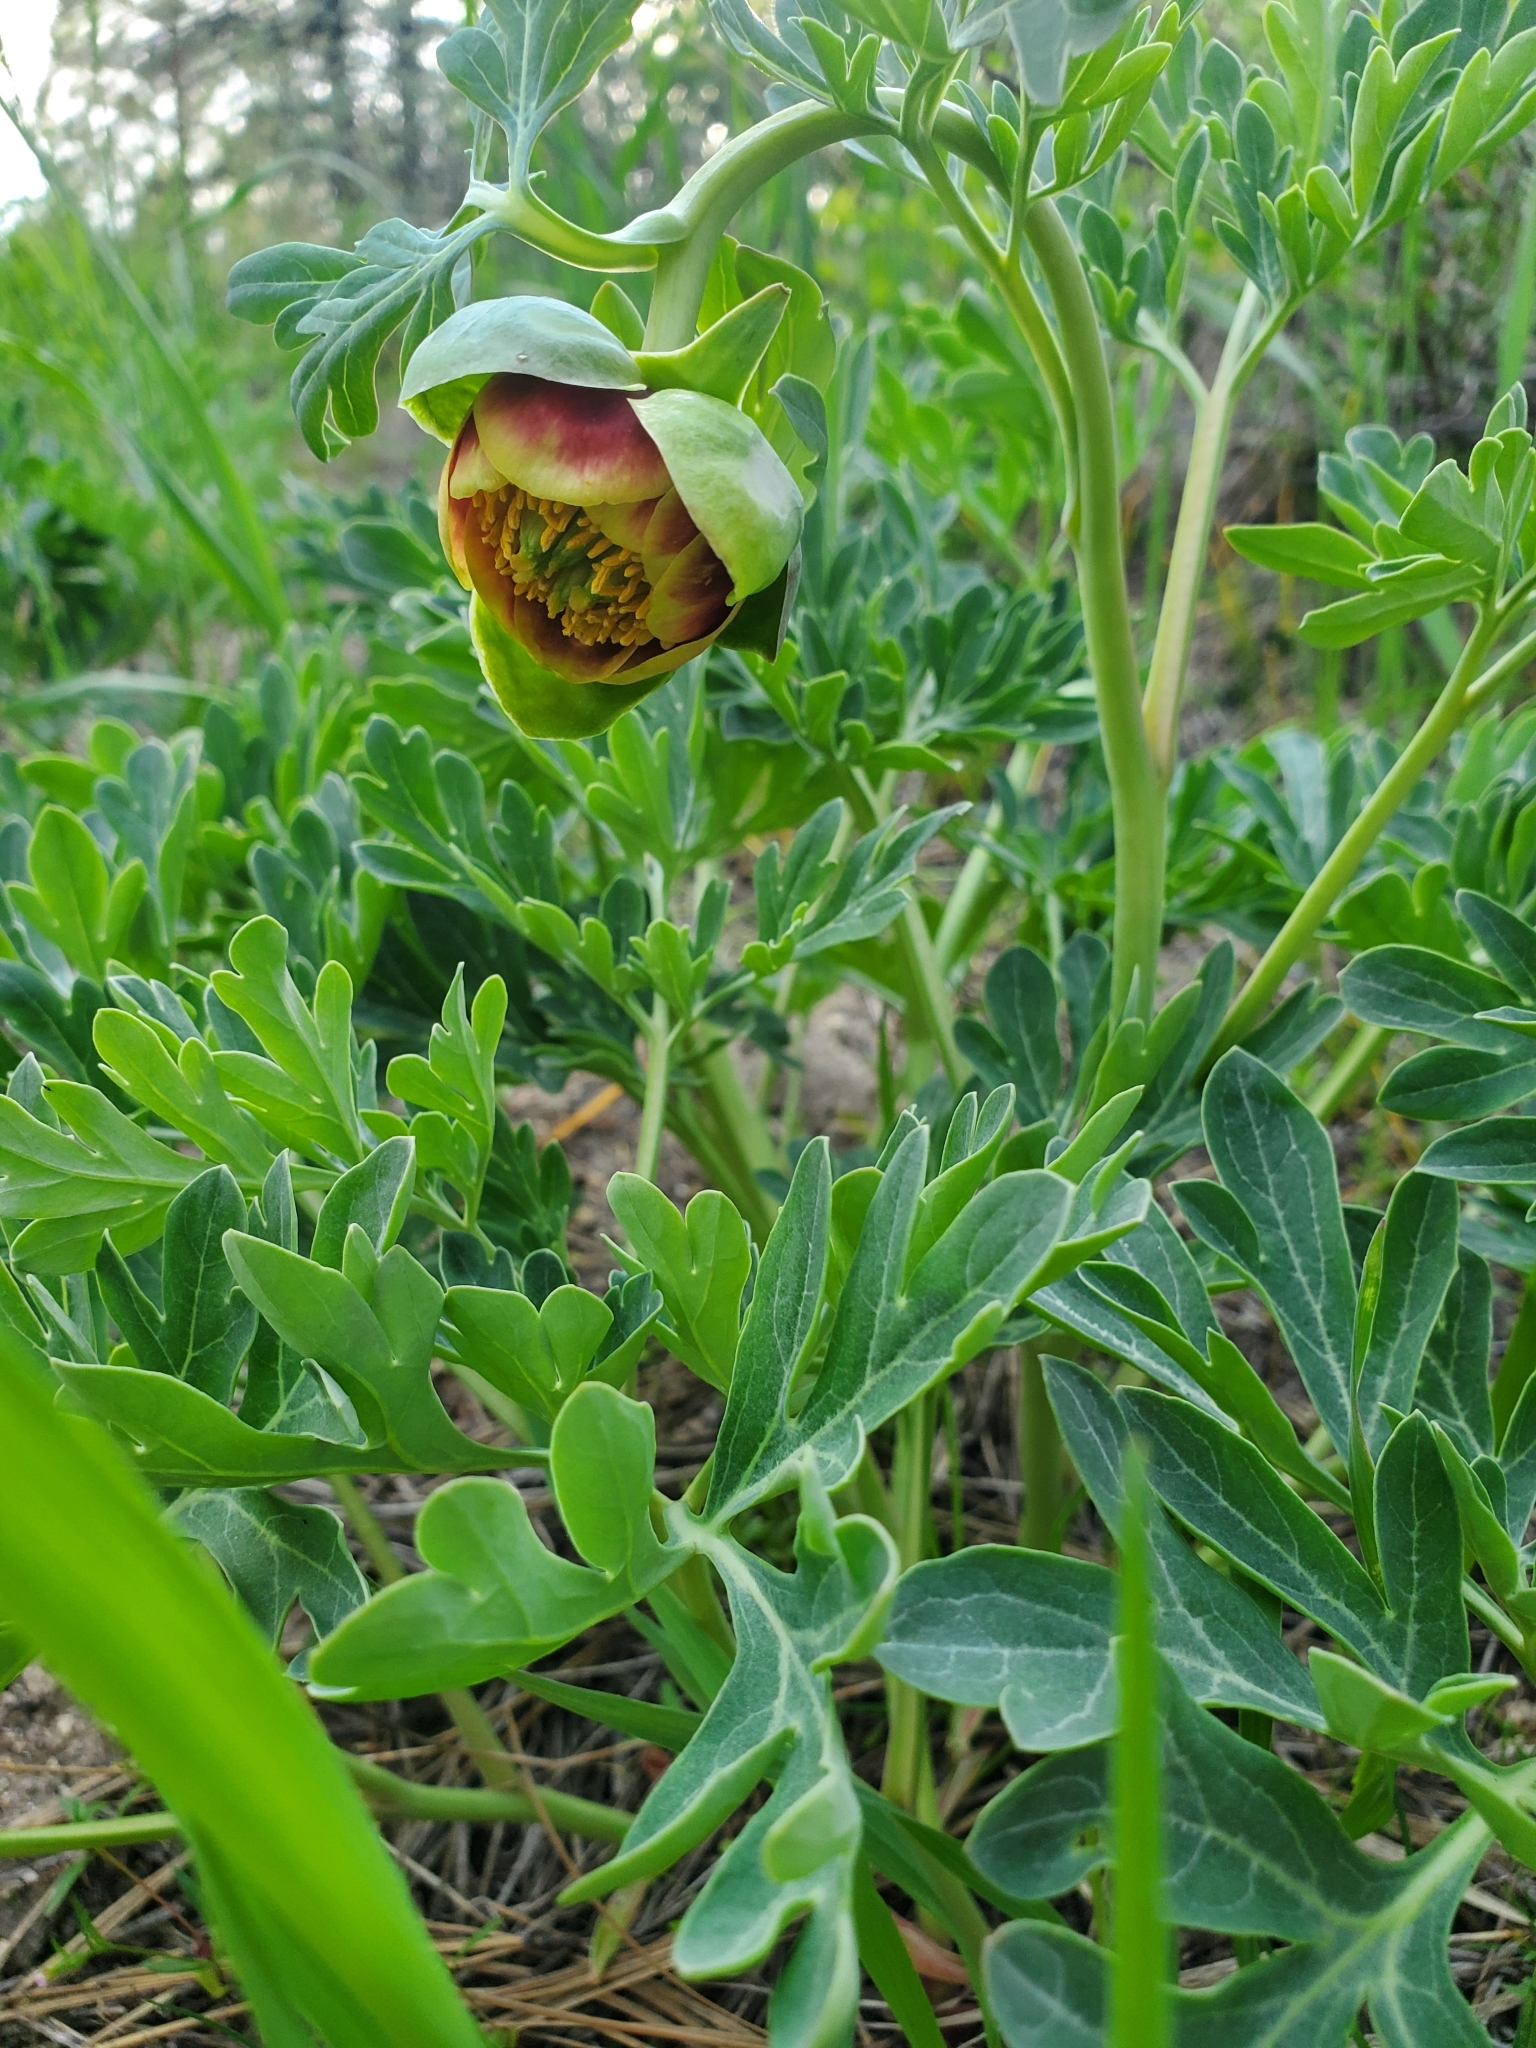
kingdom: Plantae
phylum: Tracheophyta
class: Magnoliopsida
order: Saxifragales
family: Paeoniaceae
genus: Paeonia
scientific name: Paeonia brownii
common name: Brown's peony
